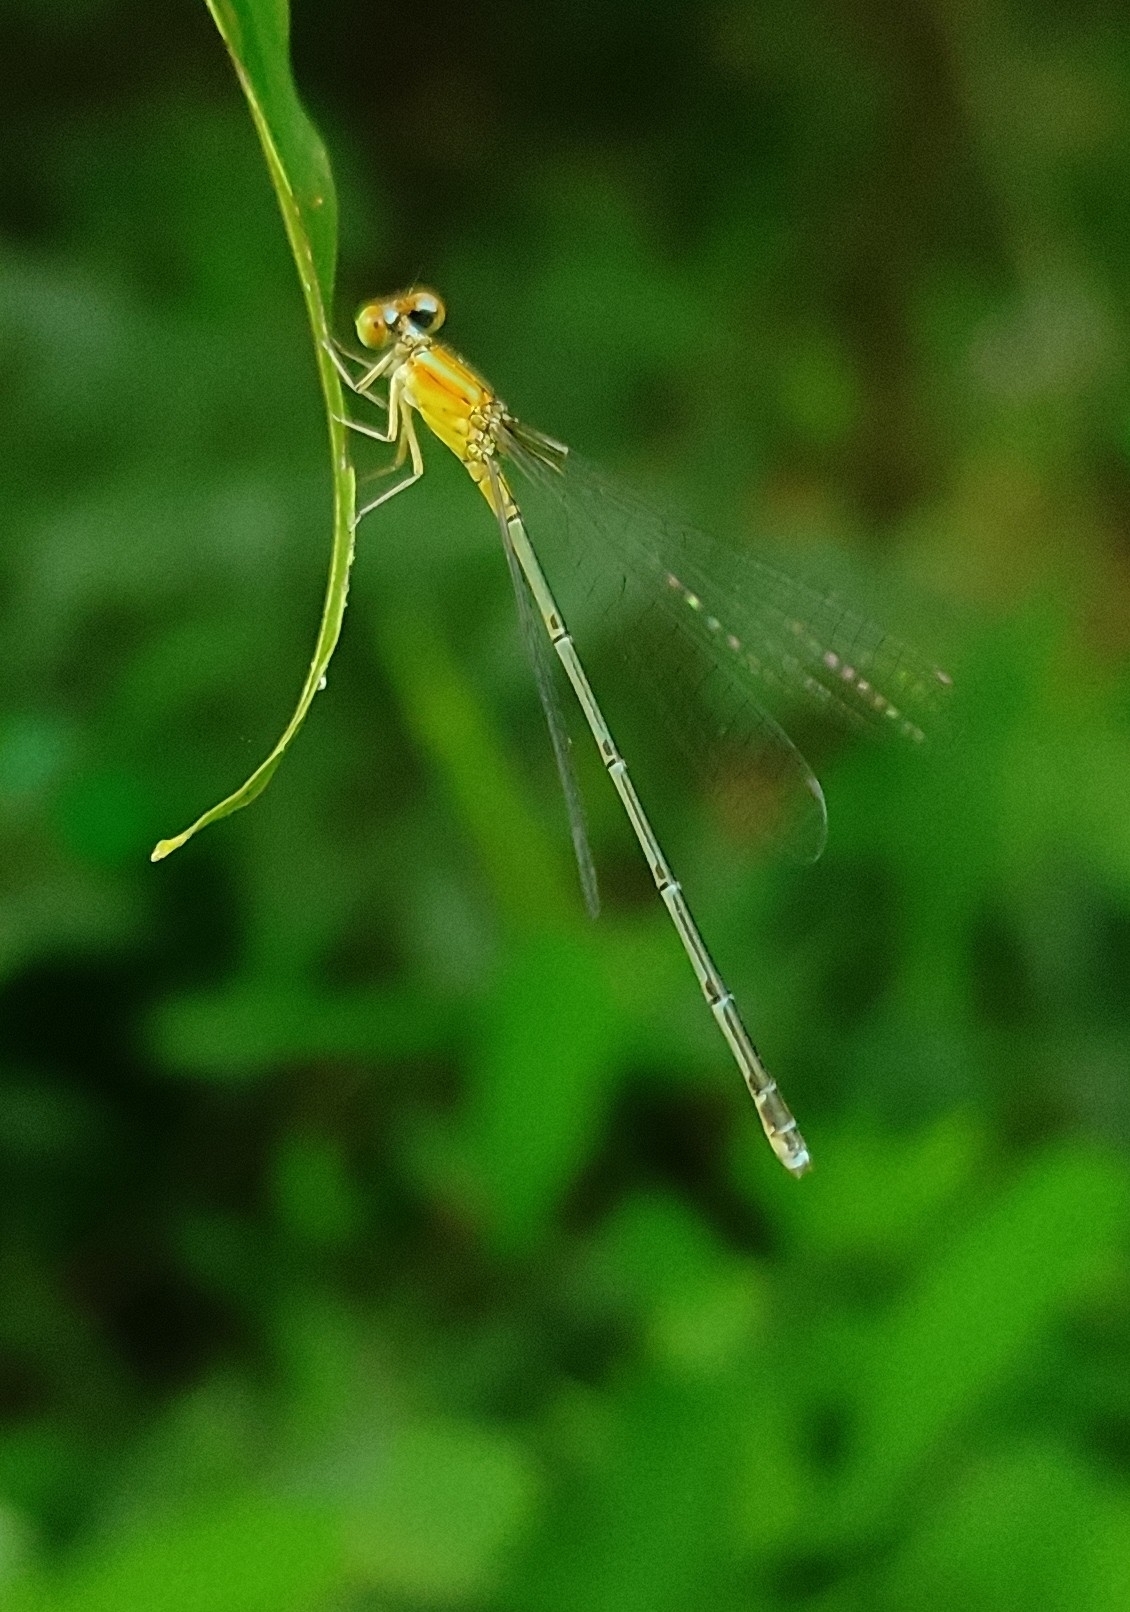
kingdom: Animalia
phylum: Arthropoda
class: Insecta
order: Odonata
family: Coenagrionidae
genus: Pseudagrion
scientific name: Pseudagrion microcephalum
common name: Blue riverdamsel
